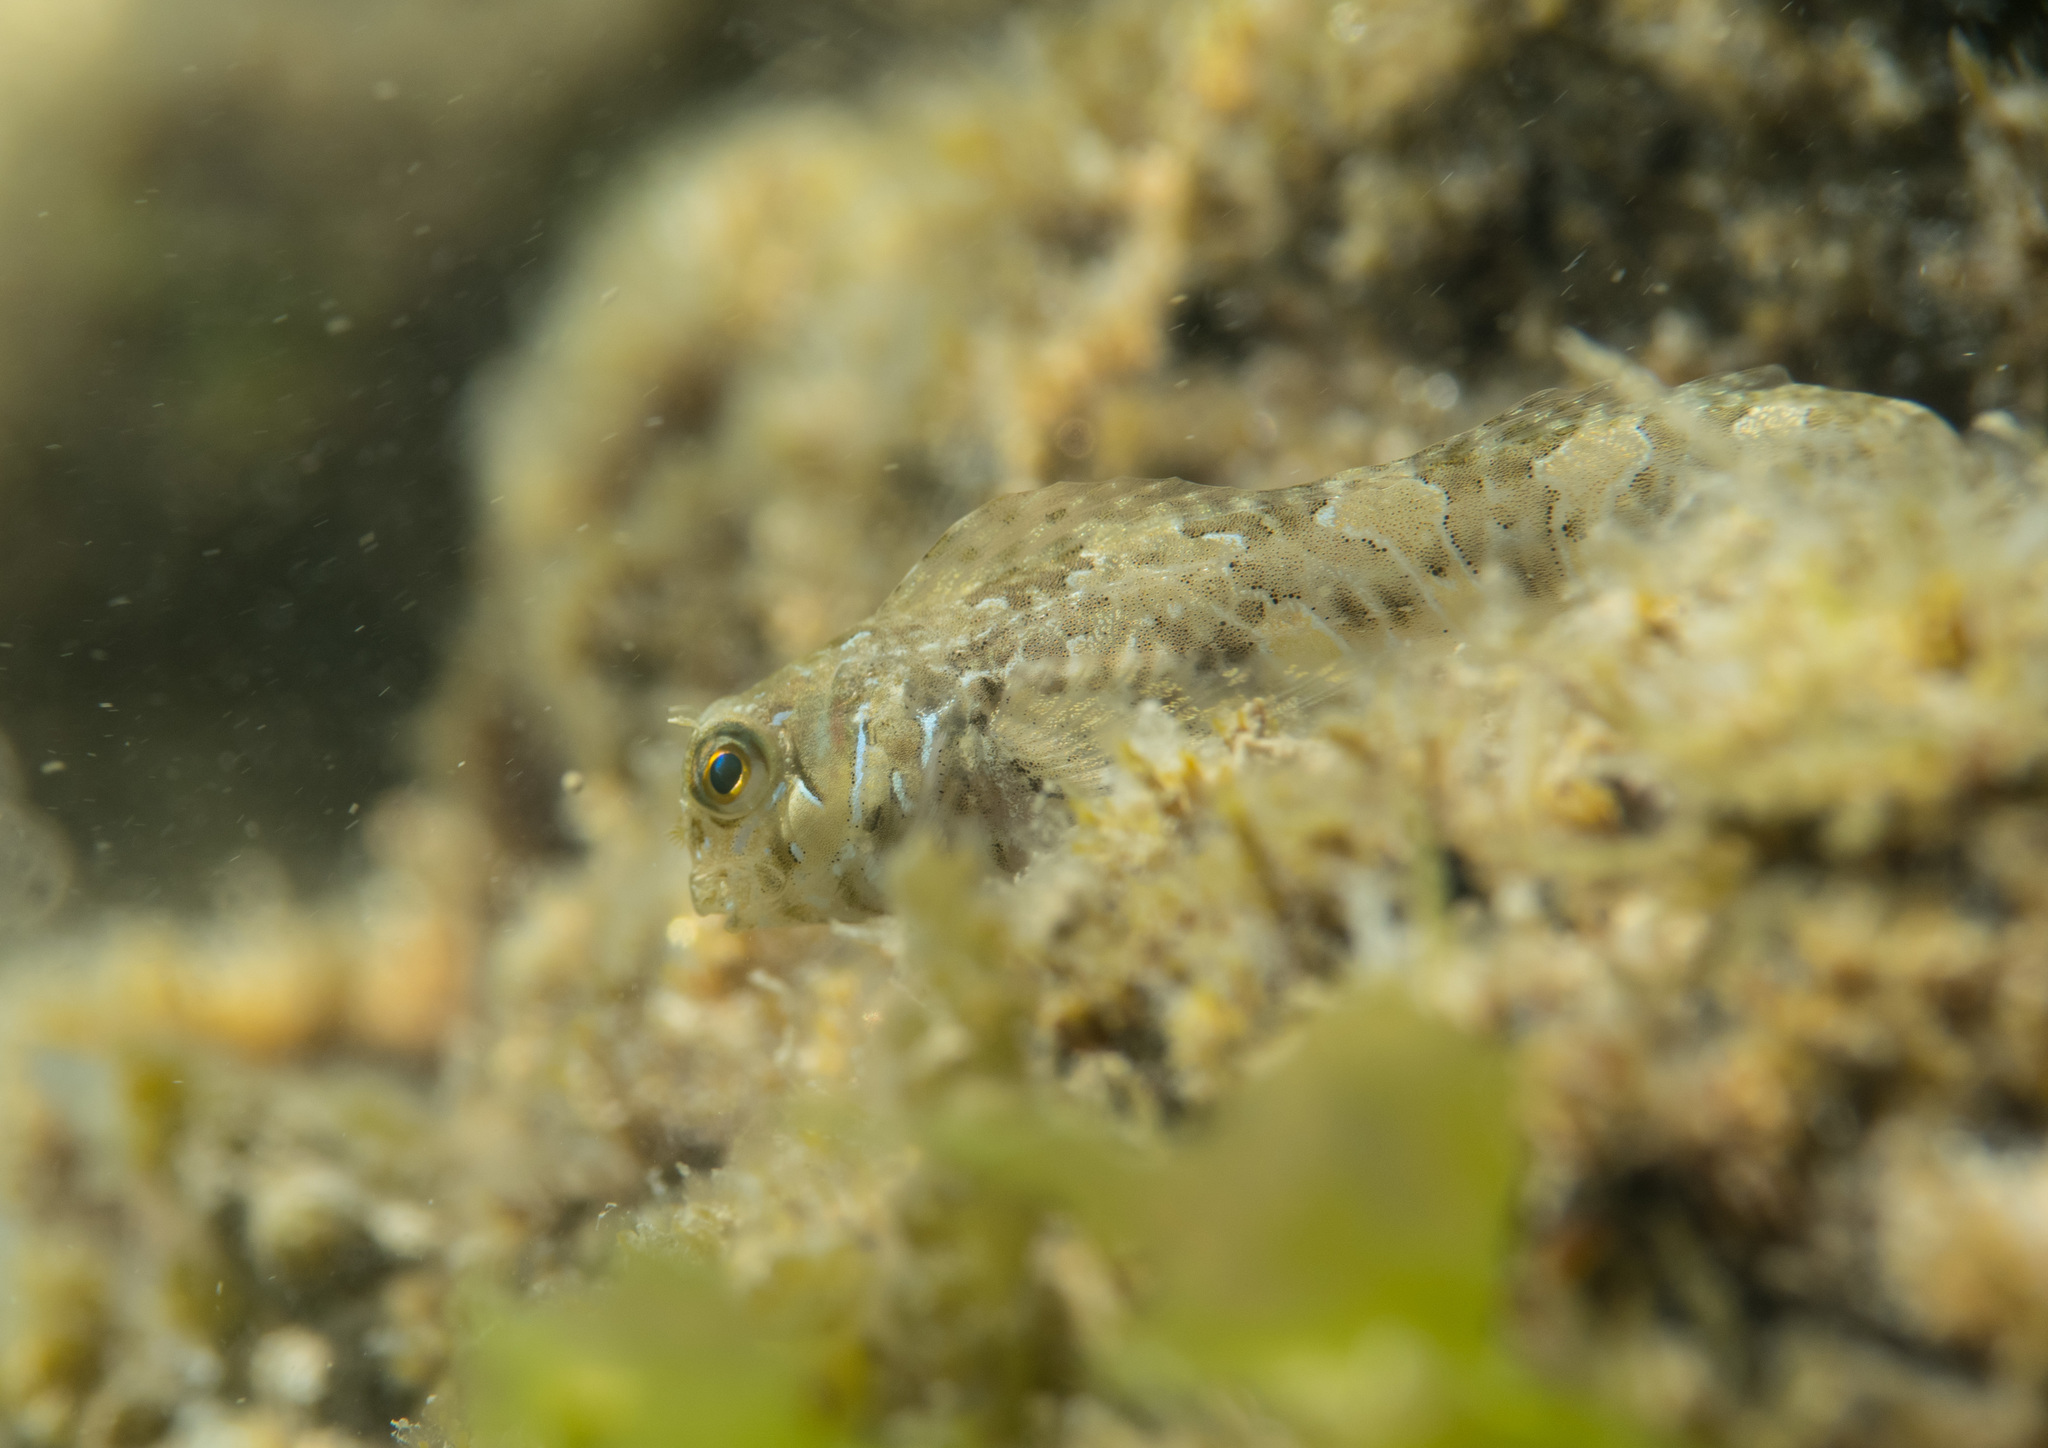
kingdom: Animalia
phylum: Chordata
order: Perciformes
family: Blenniidae
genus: Aidablennius
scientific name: Aidablennius sphynx
